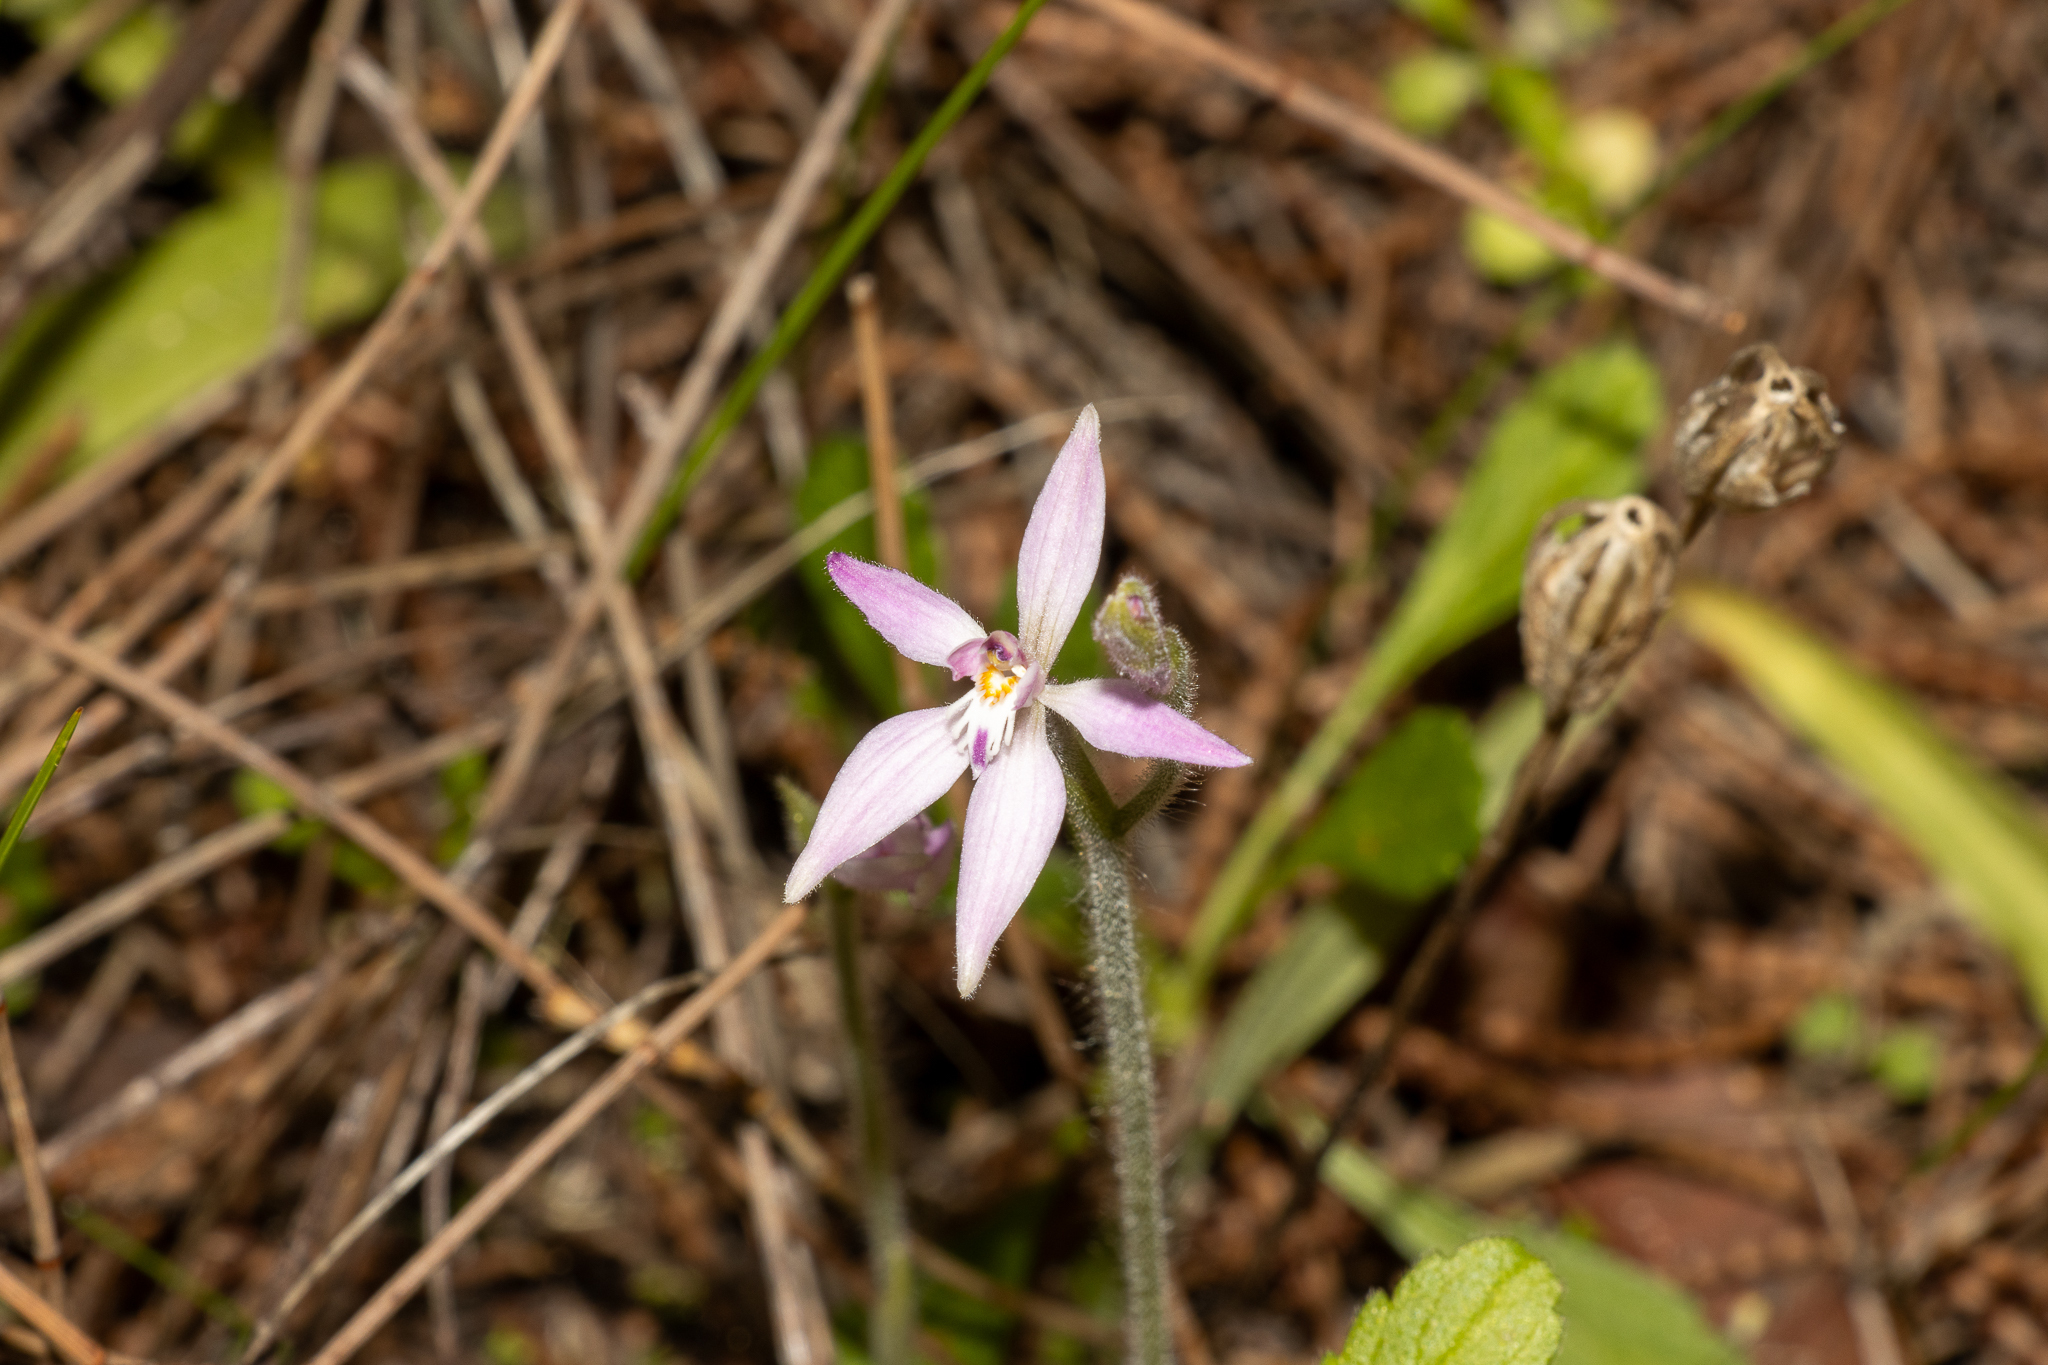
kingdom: Plantae
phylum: Tracheophyta
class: Liliopsida
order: Asparagales
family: Orchidaceae
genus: Caladenia
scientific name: Caladenia latifolia
